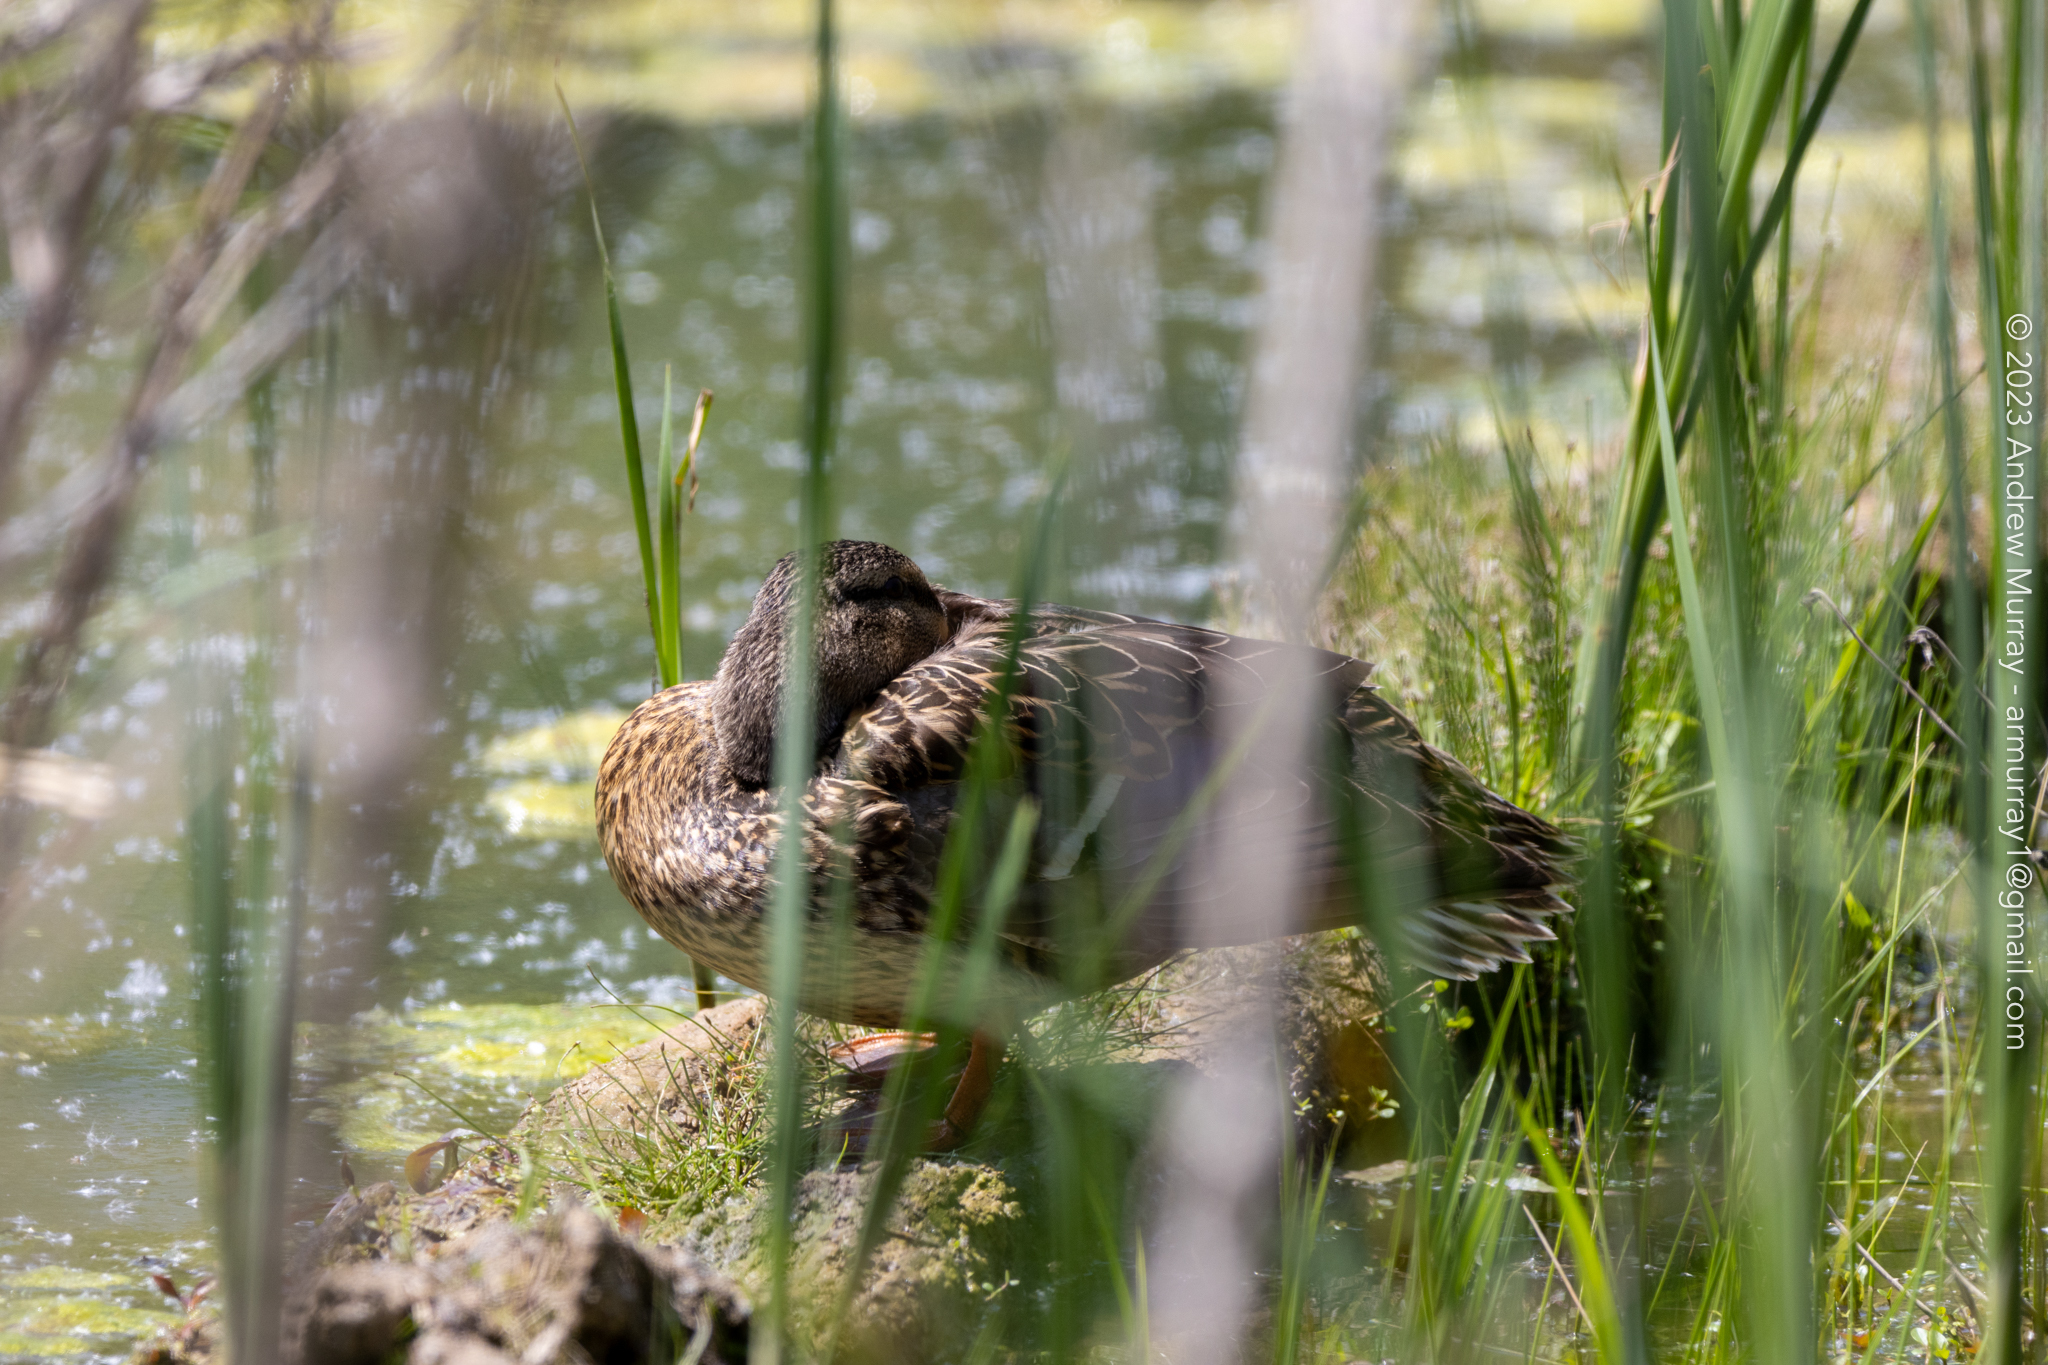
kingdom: Animalia
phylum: Chordata
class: Aves
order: Anseriformes
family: Anatidae
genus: Anas
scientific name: Anas platyrhynchos
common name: Mallard
